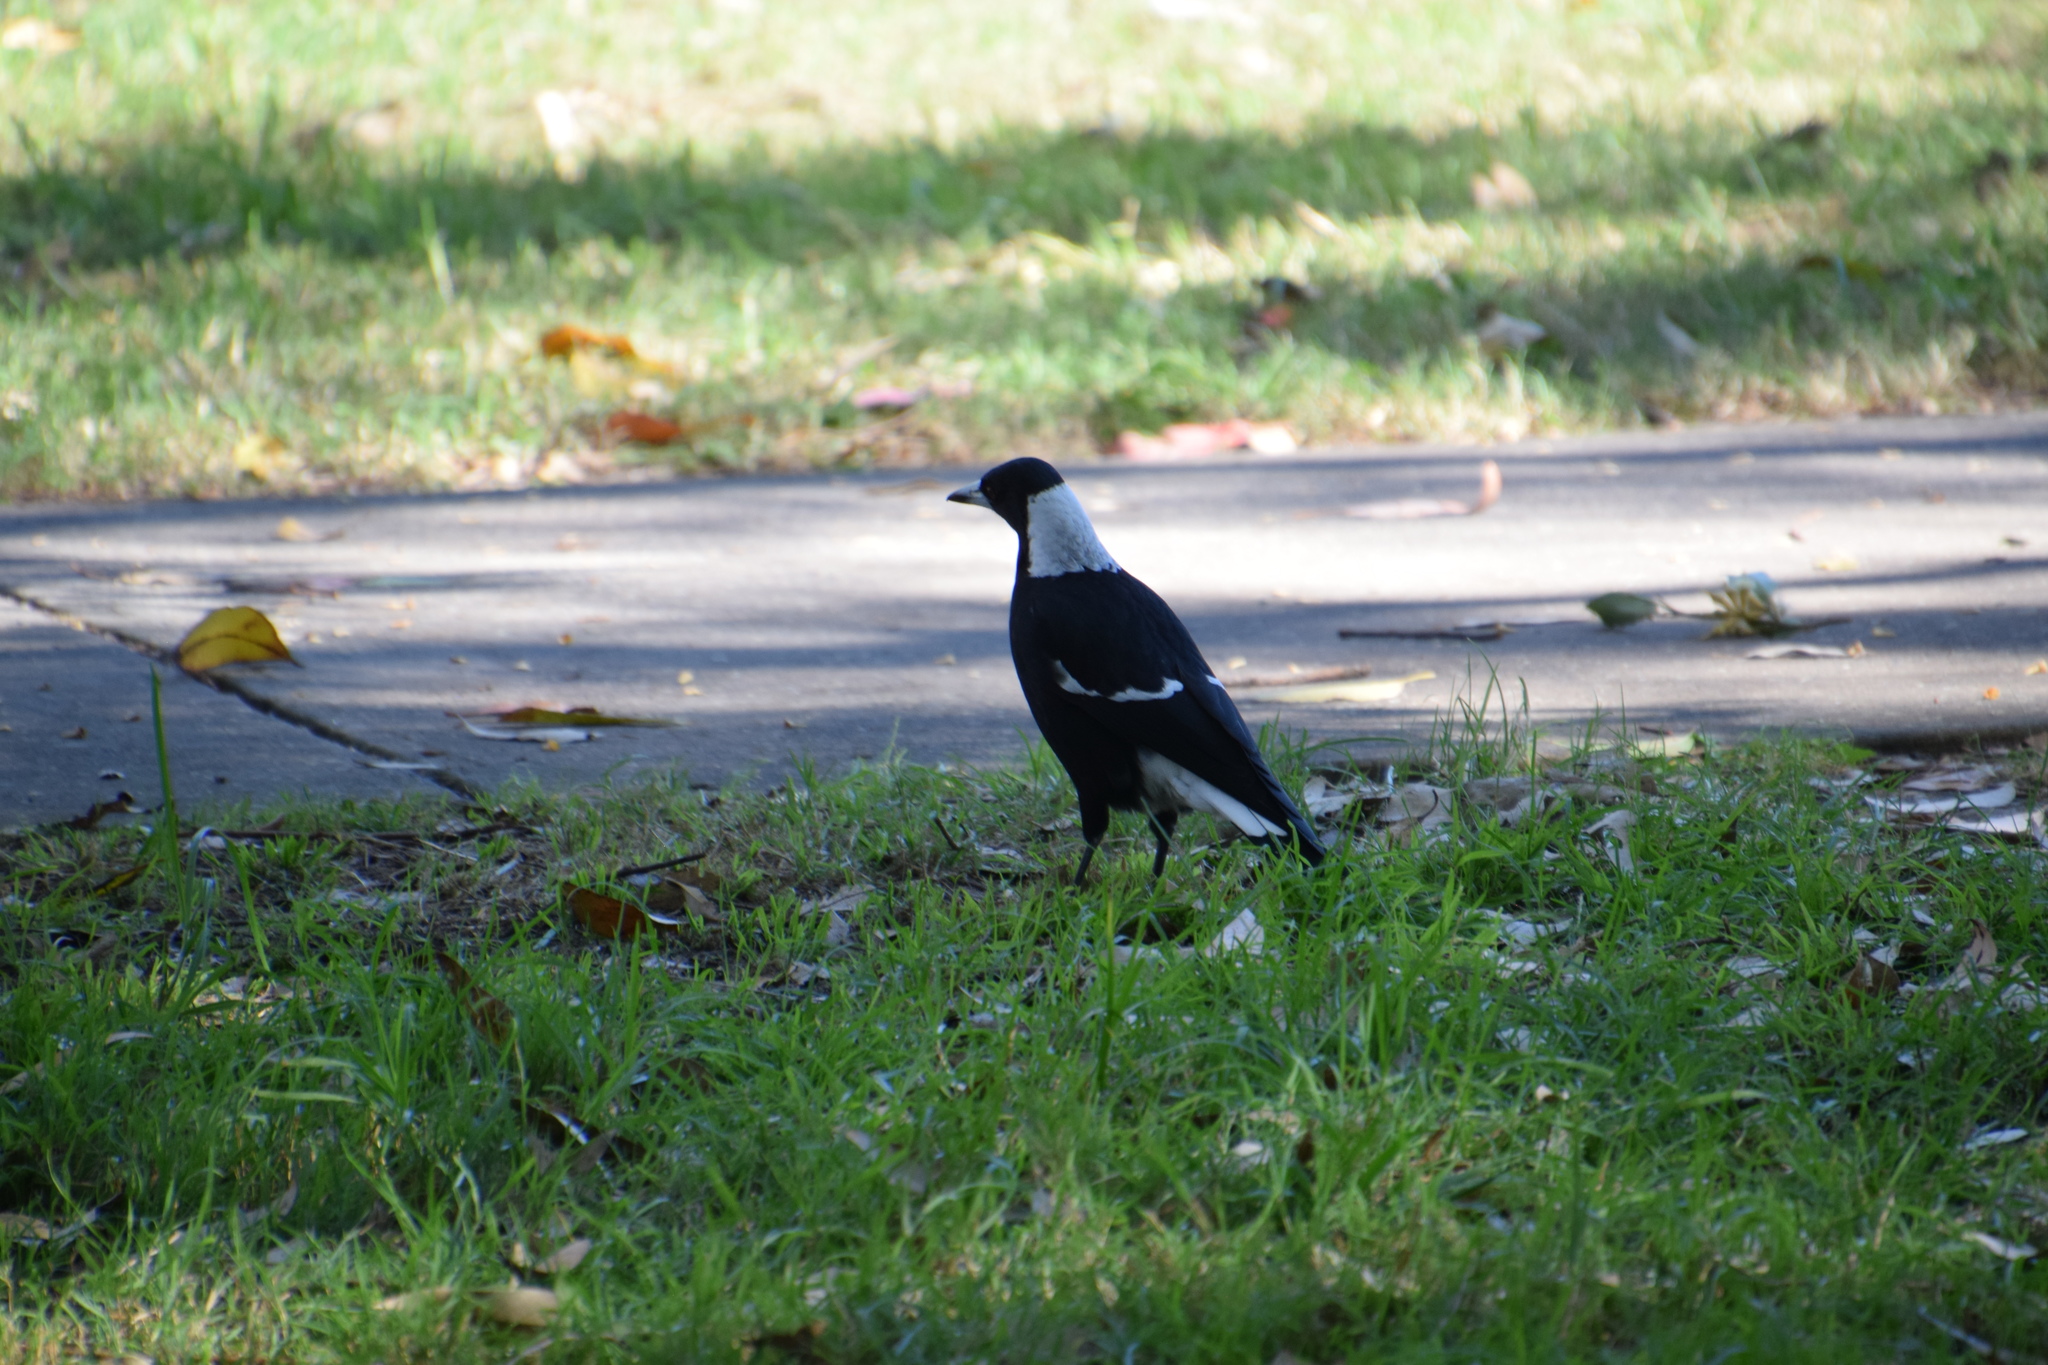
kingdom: Animalia
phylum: Chordata
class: Aves
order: Passeriformes
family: Cracticidae
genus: Gymnorhina
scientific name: Gymnorhina tibicen
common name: Australian magpie
